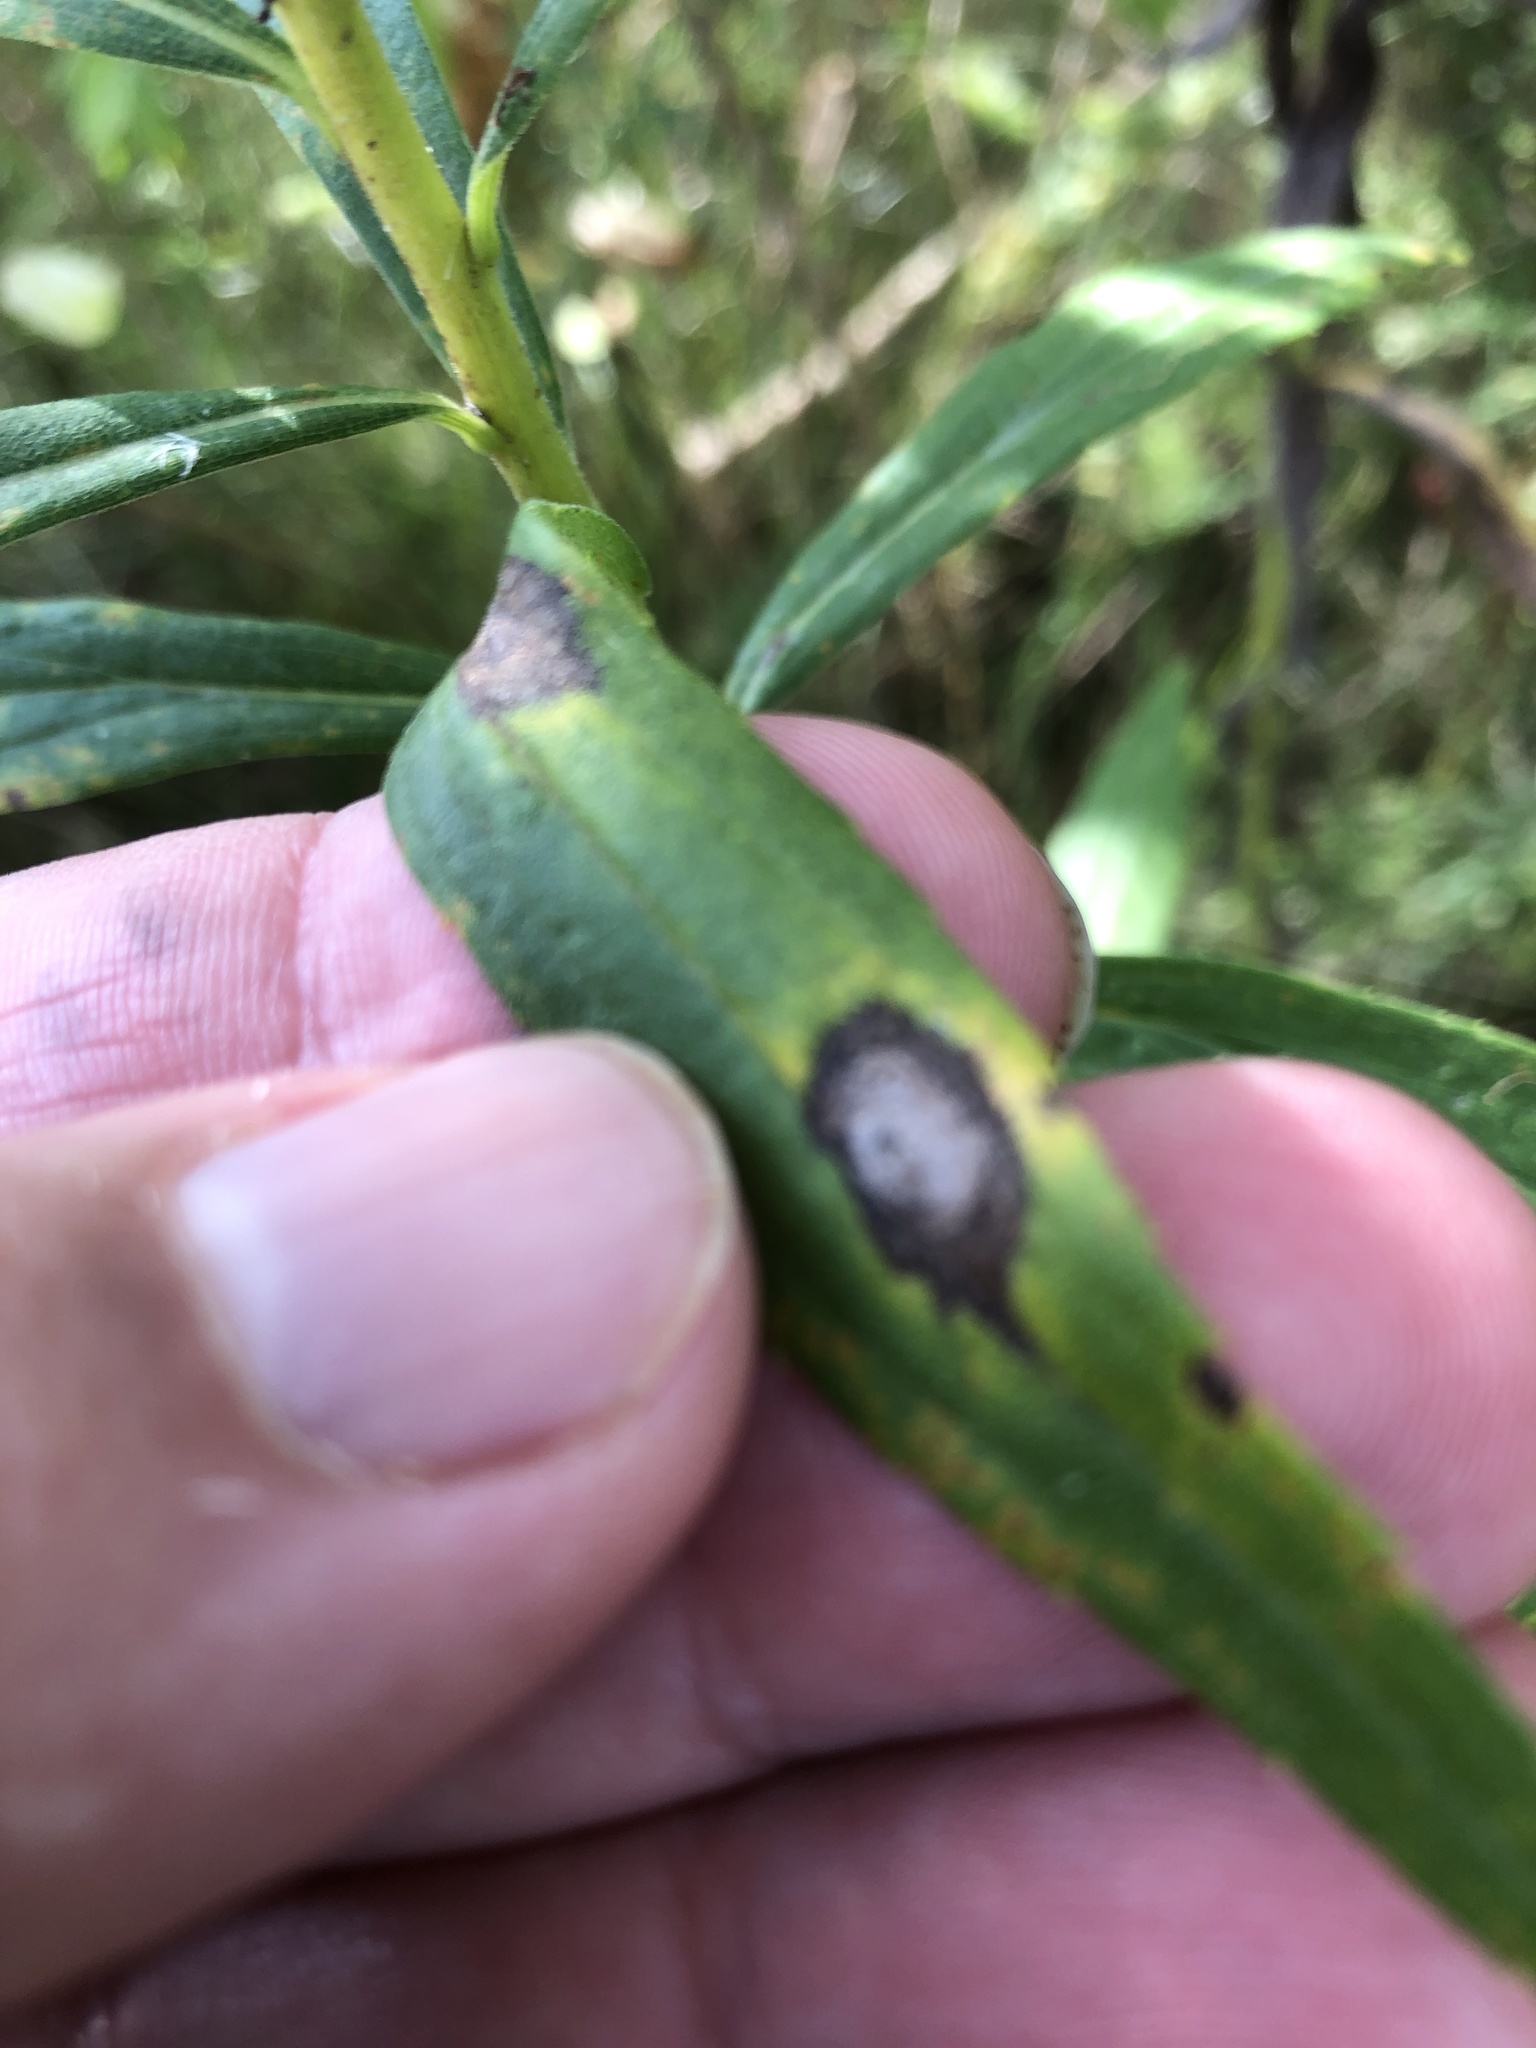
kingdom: Animalia
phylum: Arthropoda
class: Insecta
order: Diptera
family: Cecidomyiidae
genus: Asteromyia
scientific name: Asteromyia carbonifera
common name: Carbonifera goldenrod gall midge
